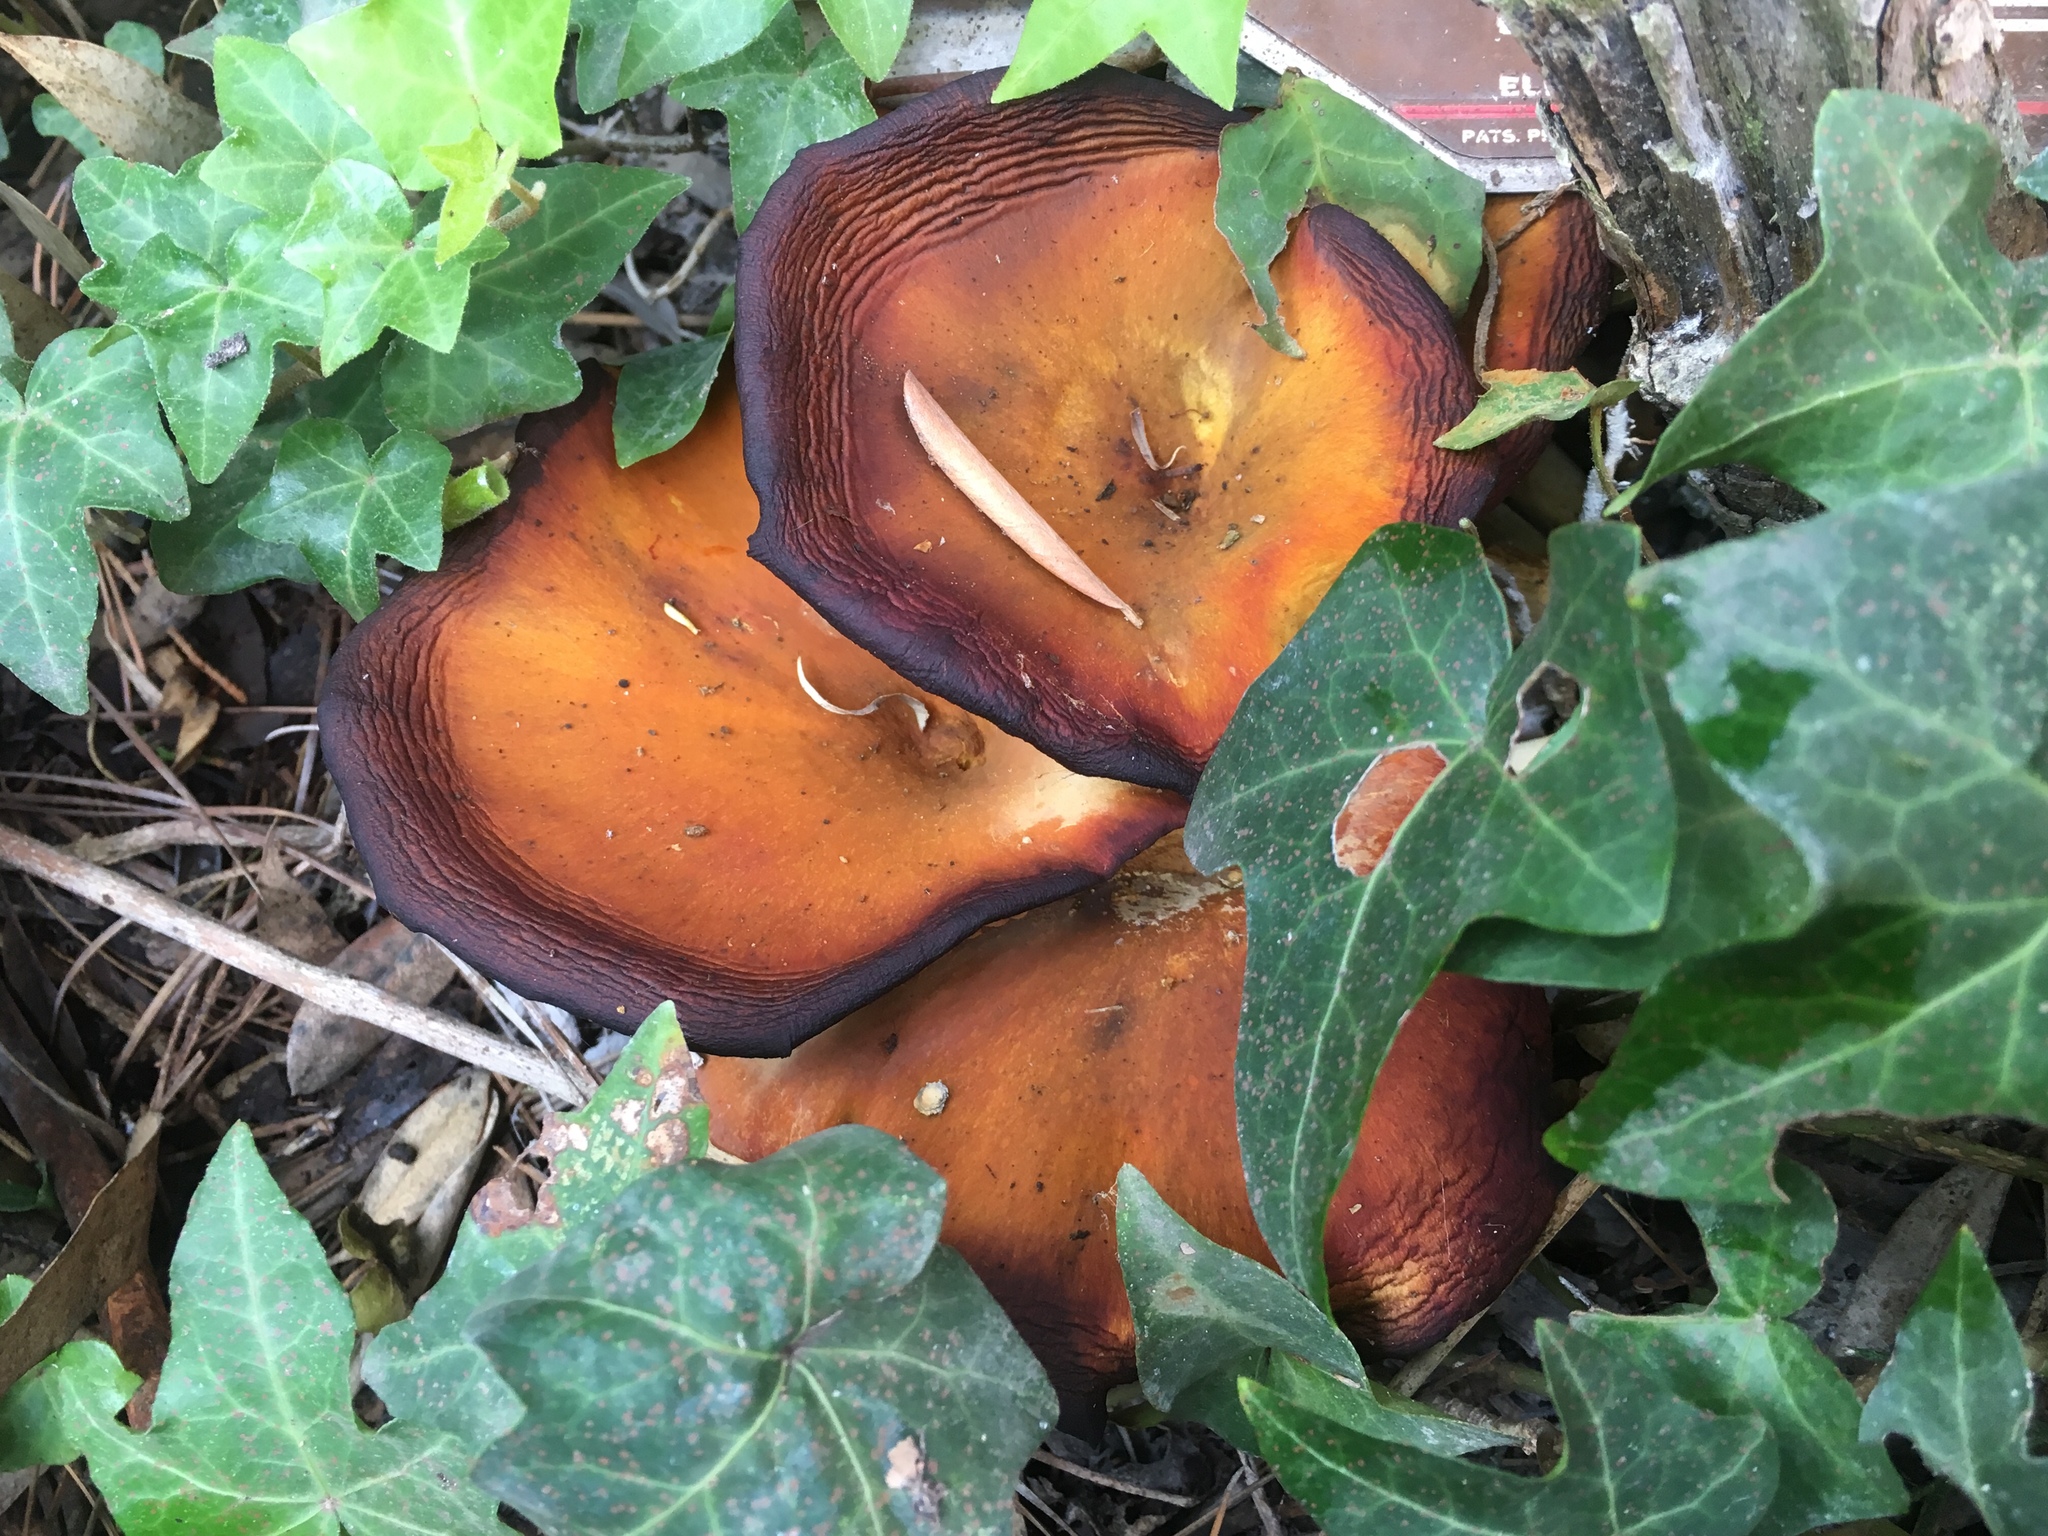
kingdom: Fungi
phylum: Basidiomycota
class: Agaricomycetes
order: Agaricales
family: Omphalotaceae
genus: Omphalotus
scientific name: Omphalotus olivascens
